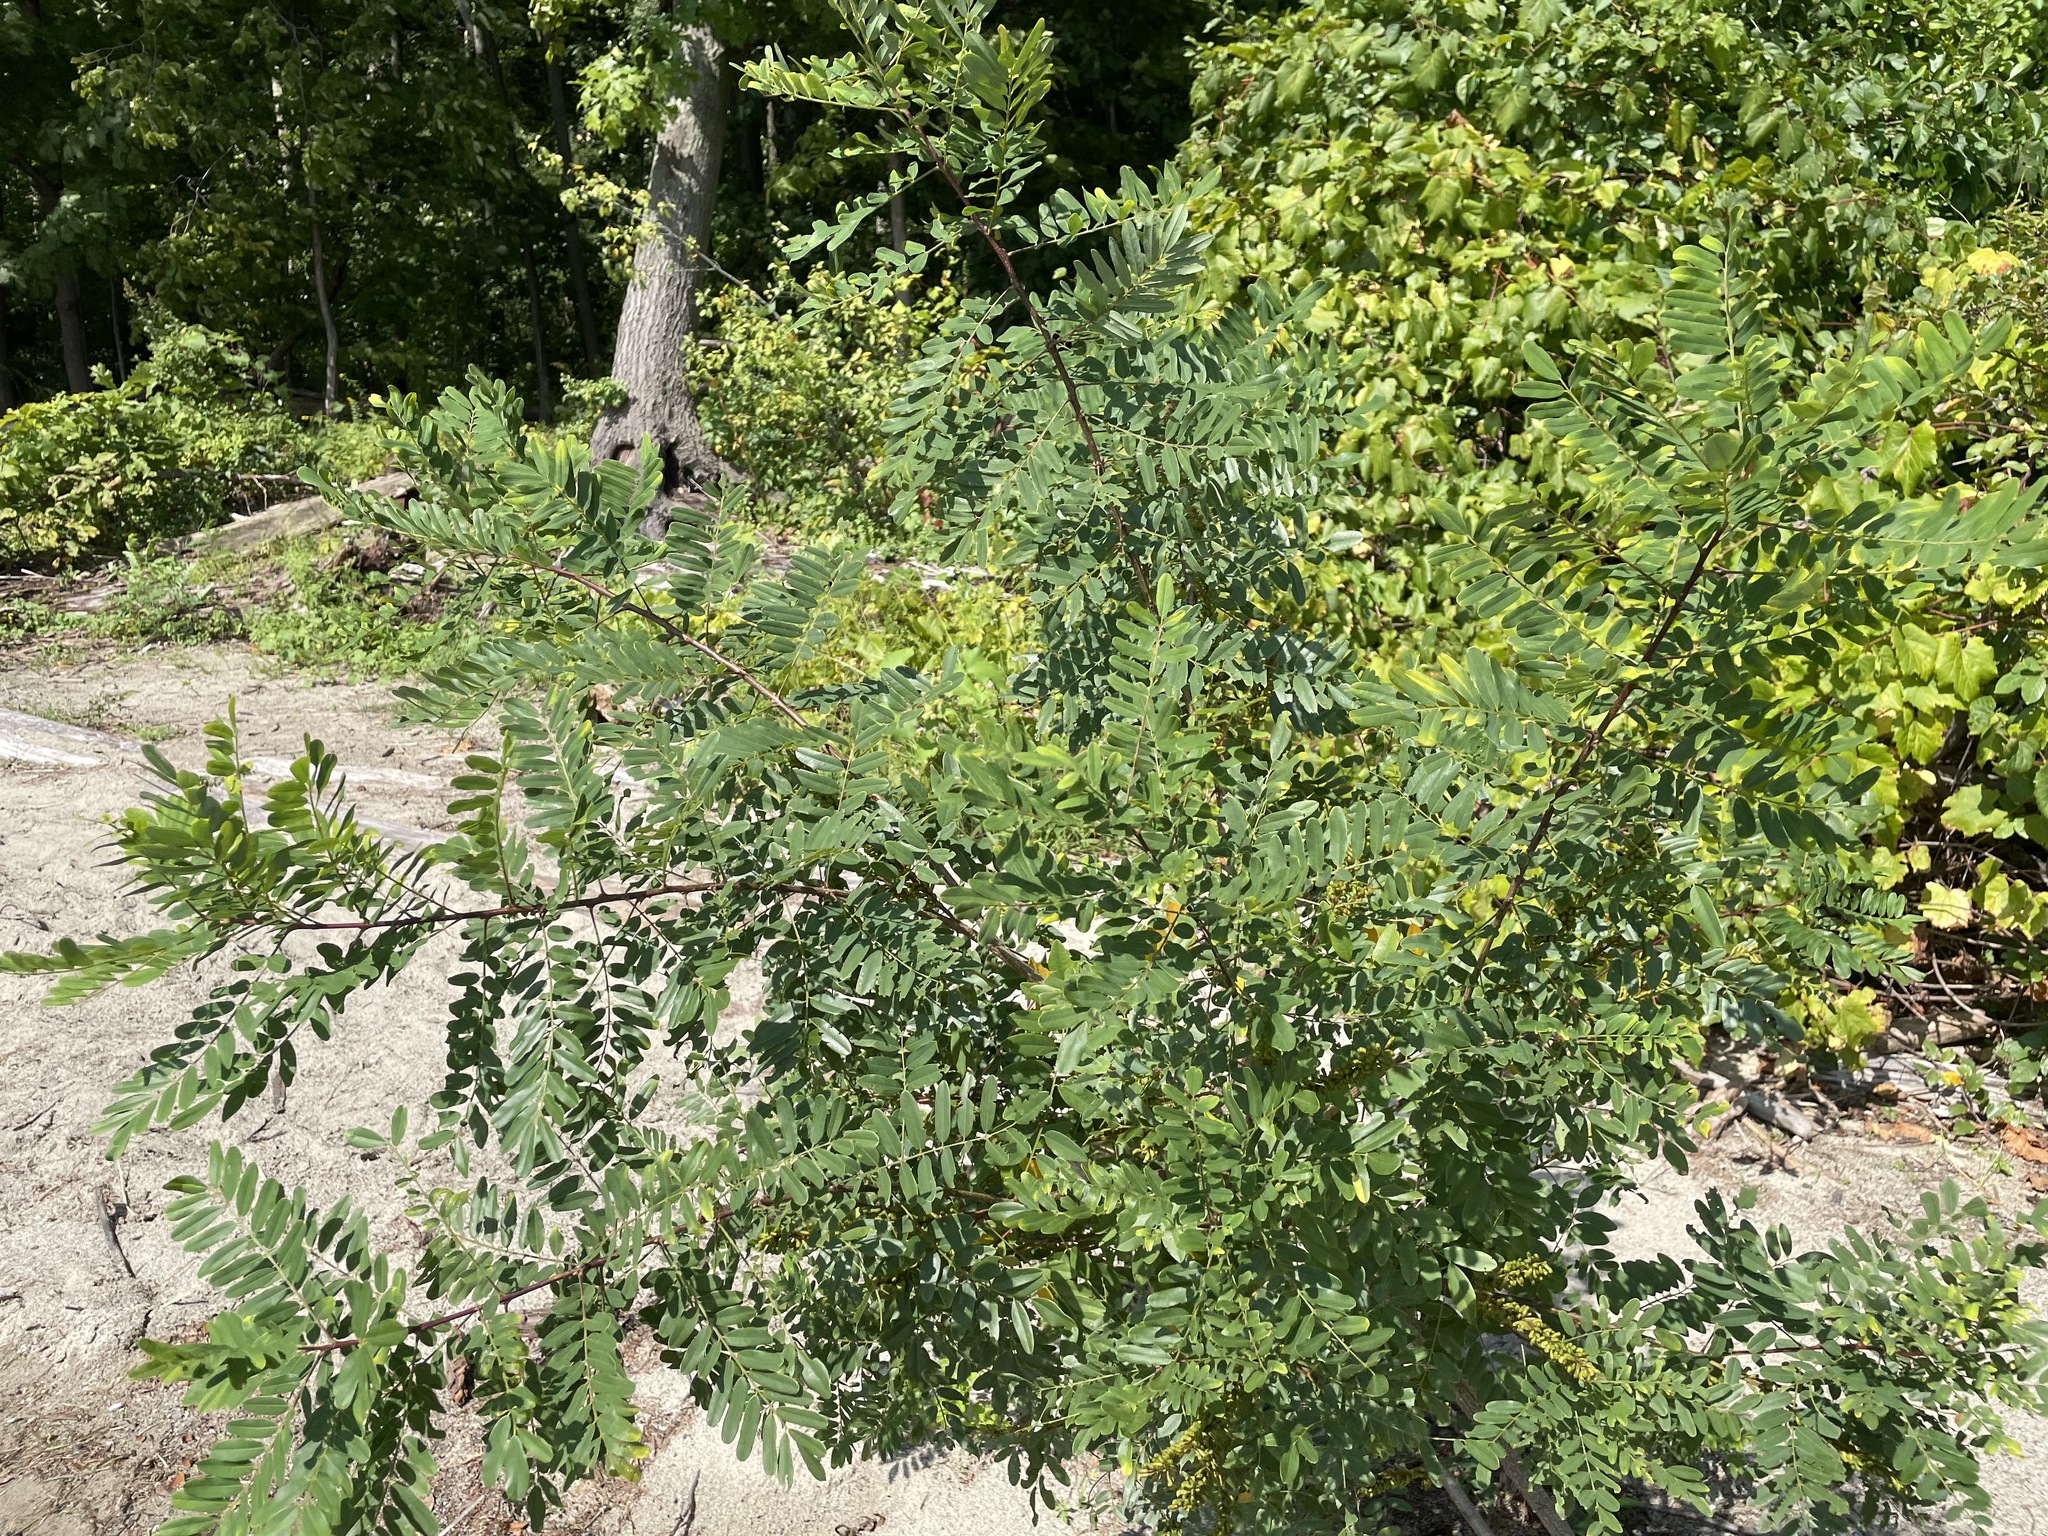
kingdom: Plantae
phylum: Tracheophyta
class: Magnoliopsida
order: Fabales
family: Fabaceae
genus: Amorpha
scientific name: Amorpha fruticosa
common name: False indigo
